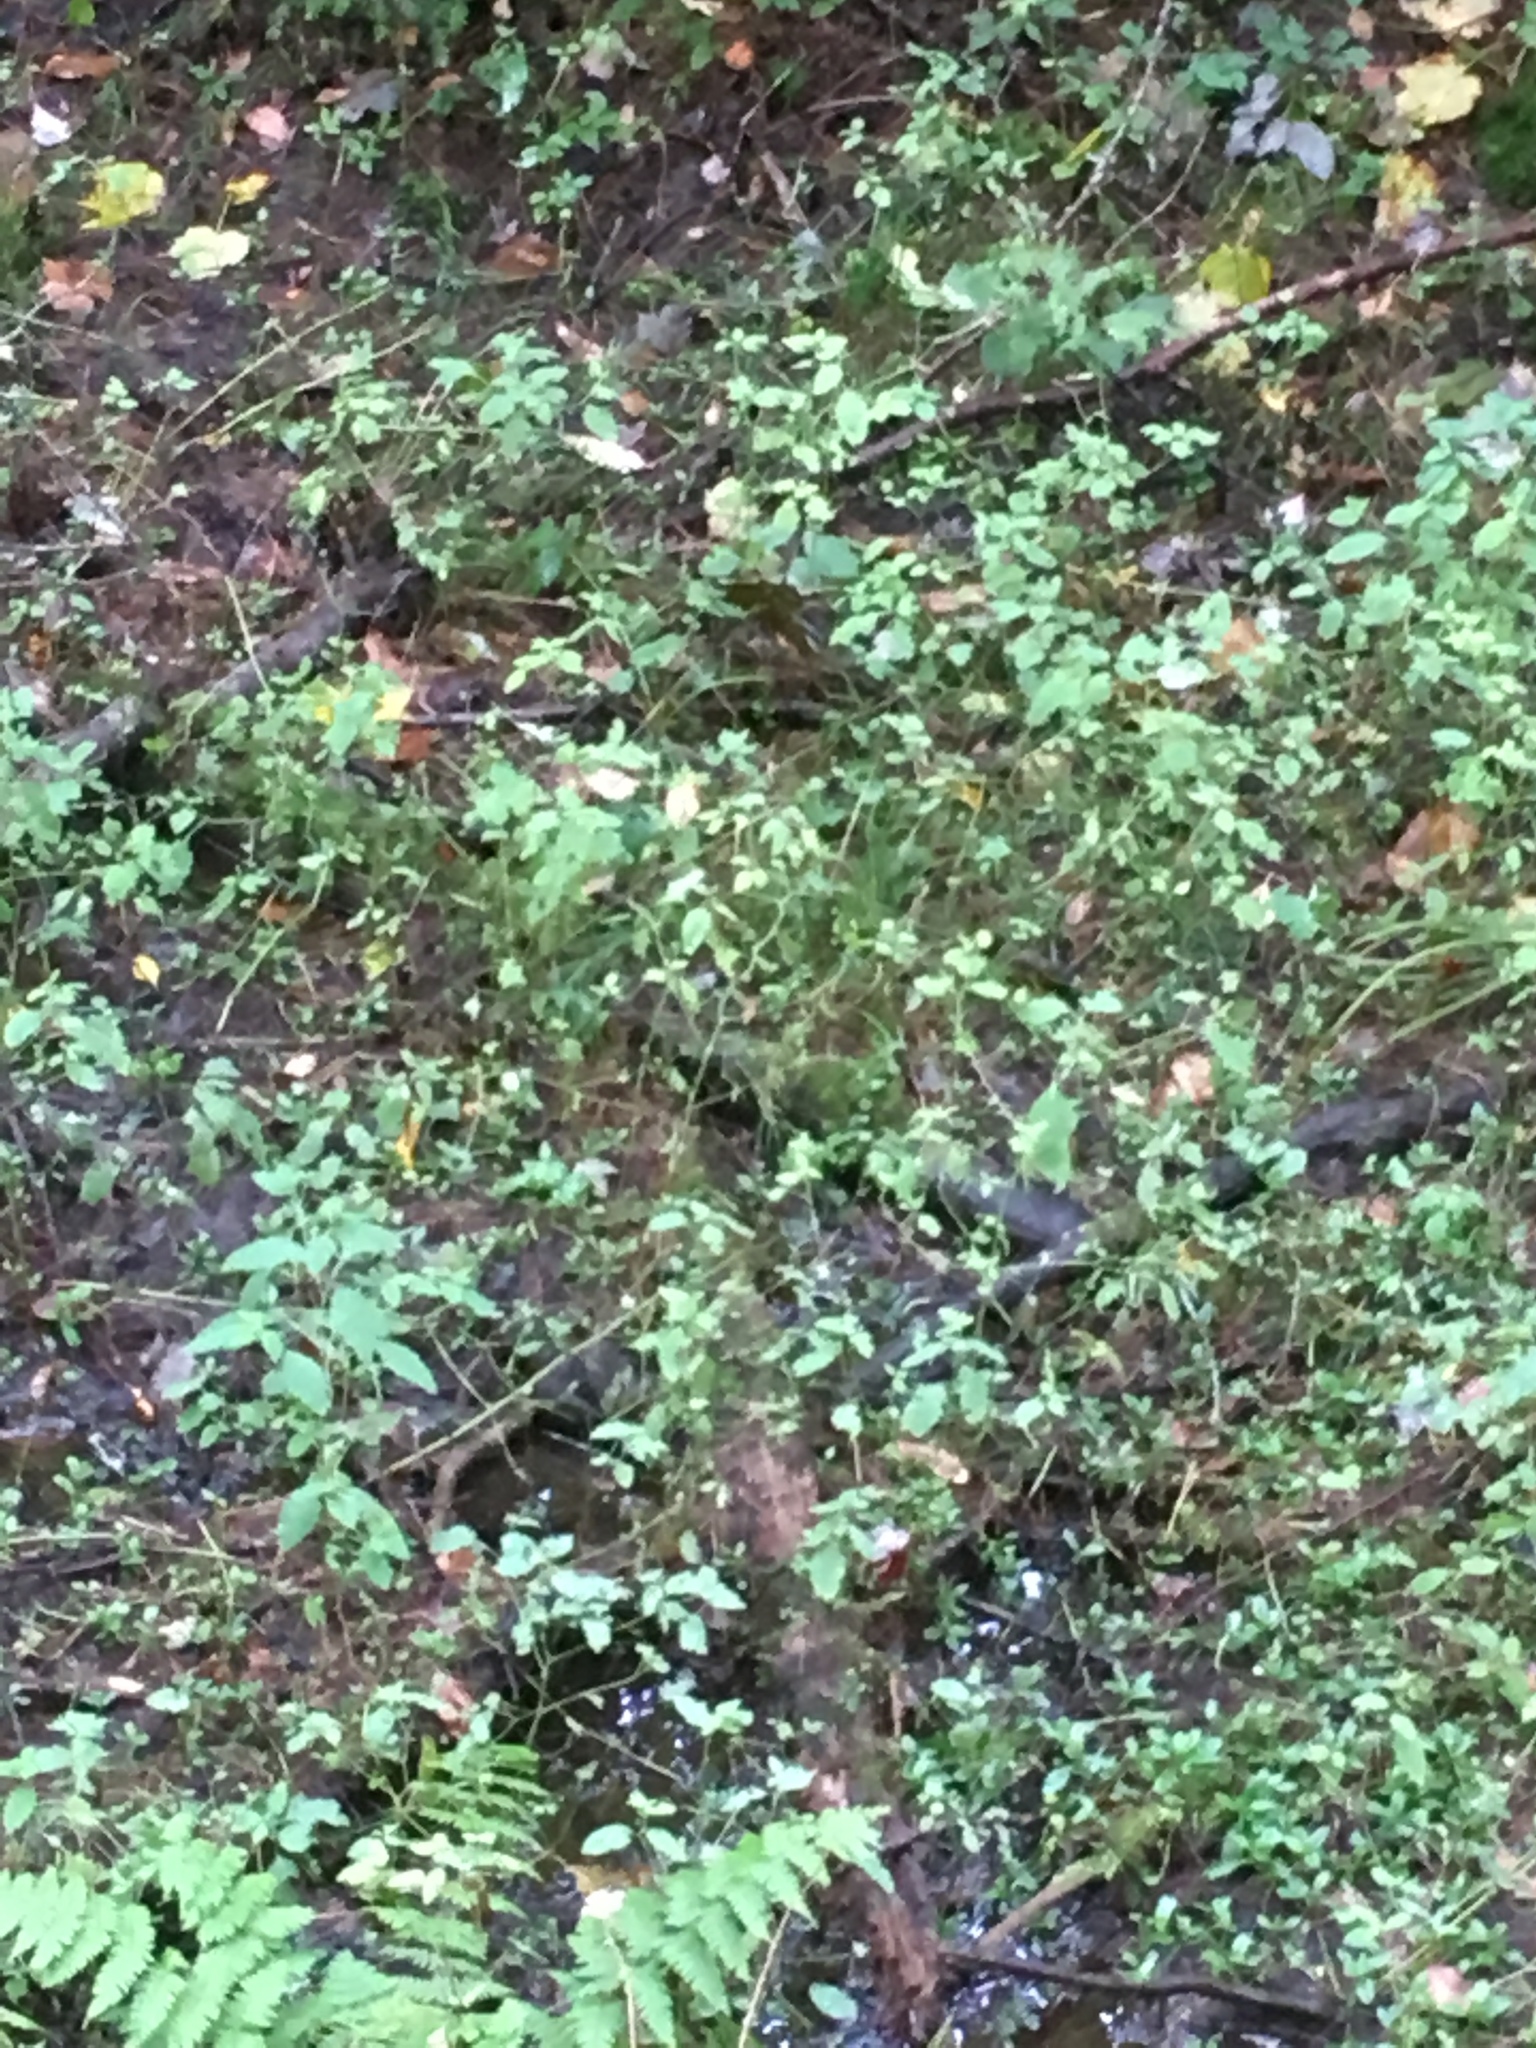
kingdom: Plantae
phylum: Tracheophyta
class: Magnoliopsida
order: Ericales
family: Balsaminaceae
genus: Impatiens
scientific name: Impatiens capensis
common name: Orange balsam
